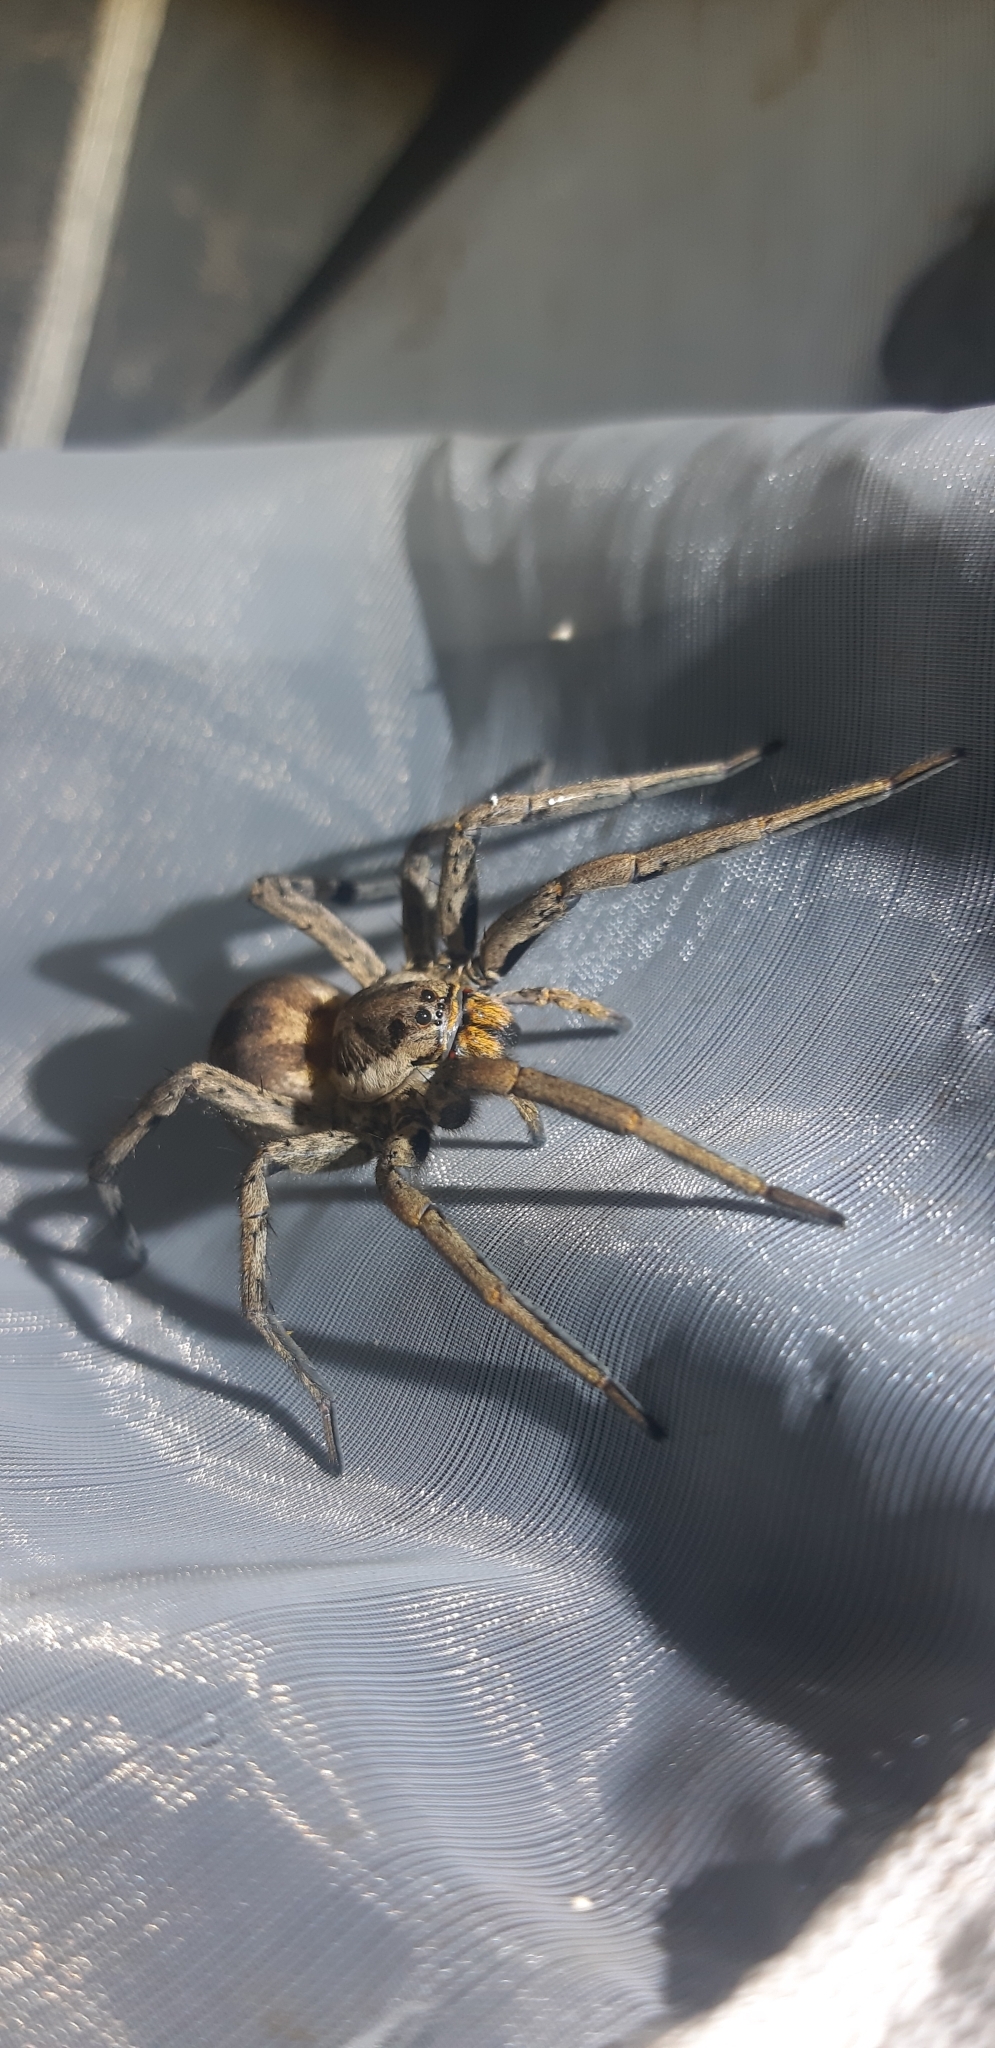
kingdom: Animalia
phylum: Arthropoda
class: Arachnida
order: Araneae
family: Lycosidae
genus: Hogna
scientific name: Hogna radiata
